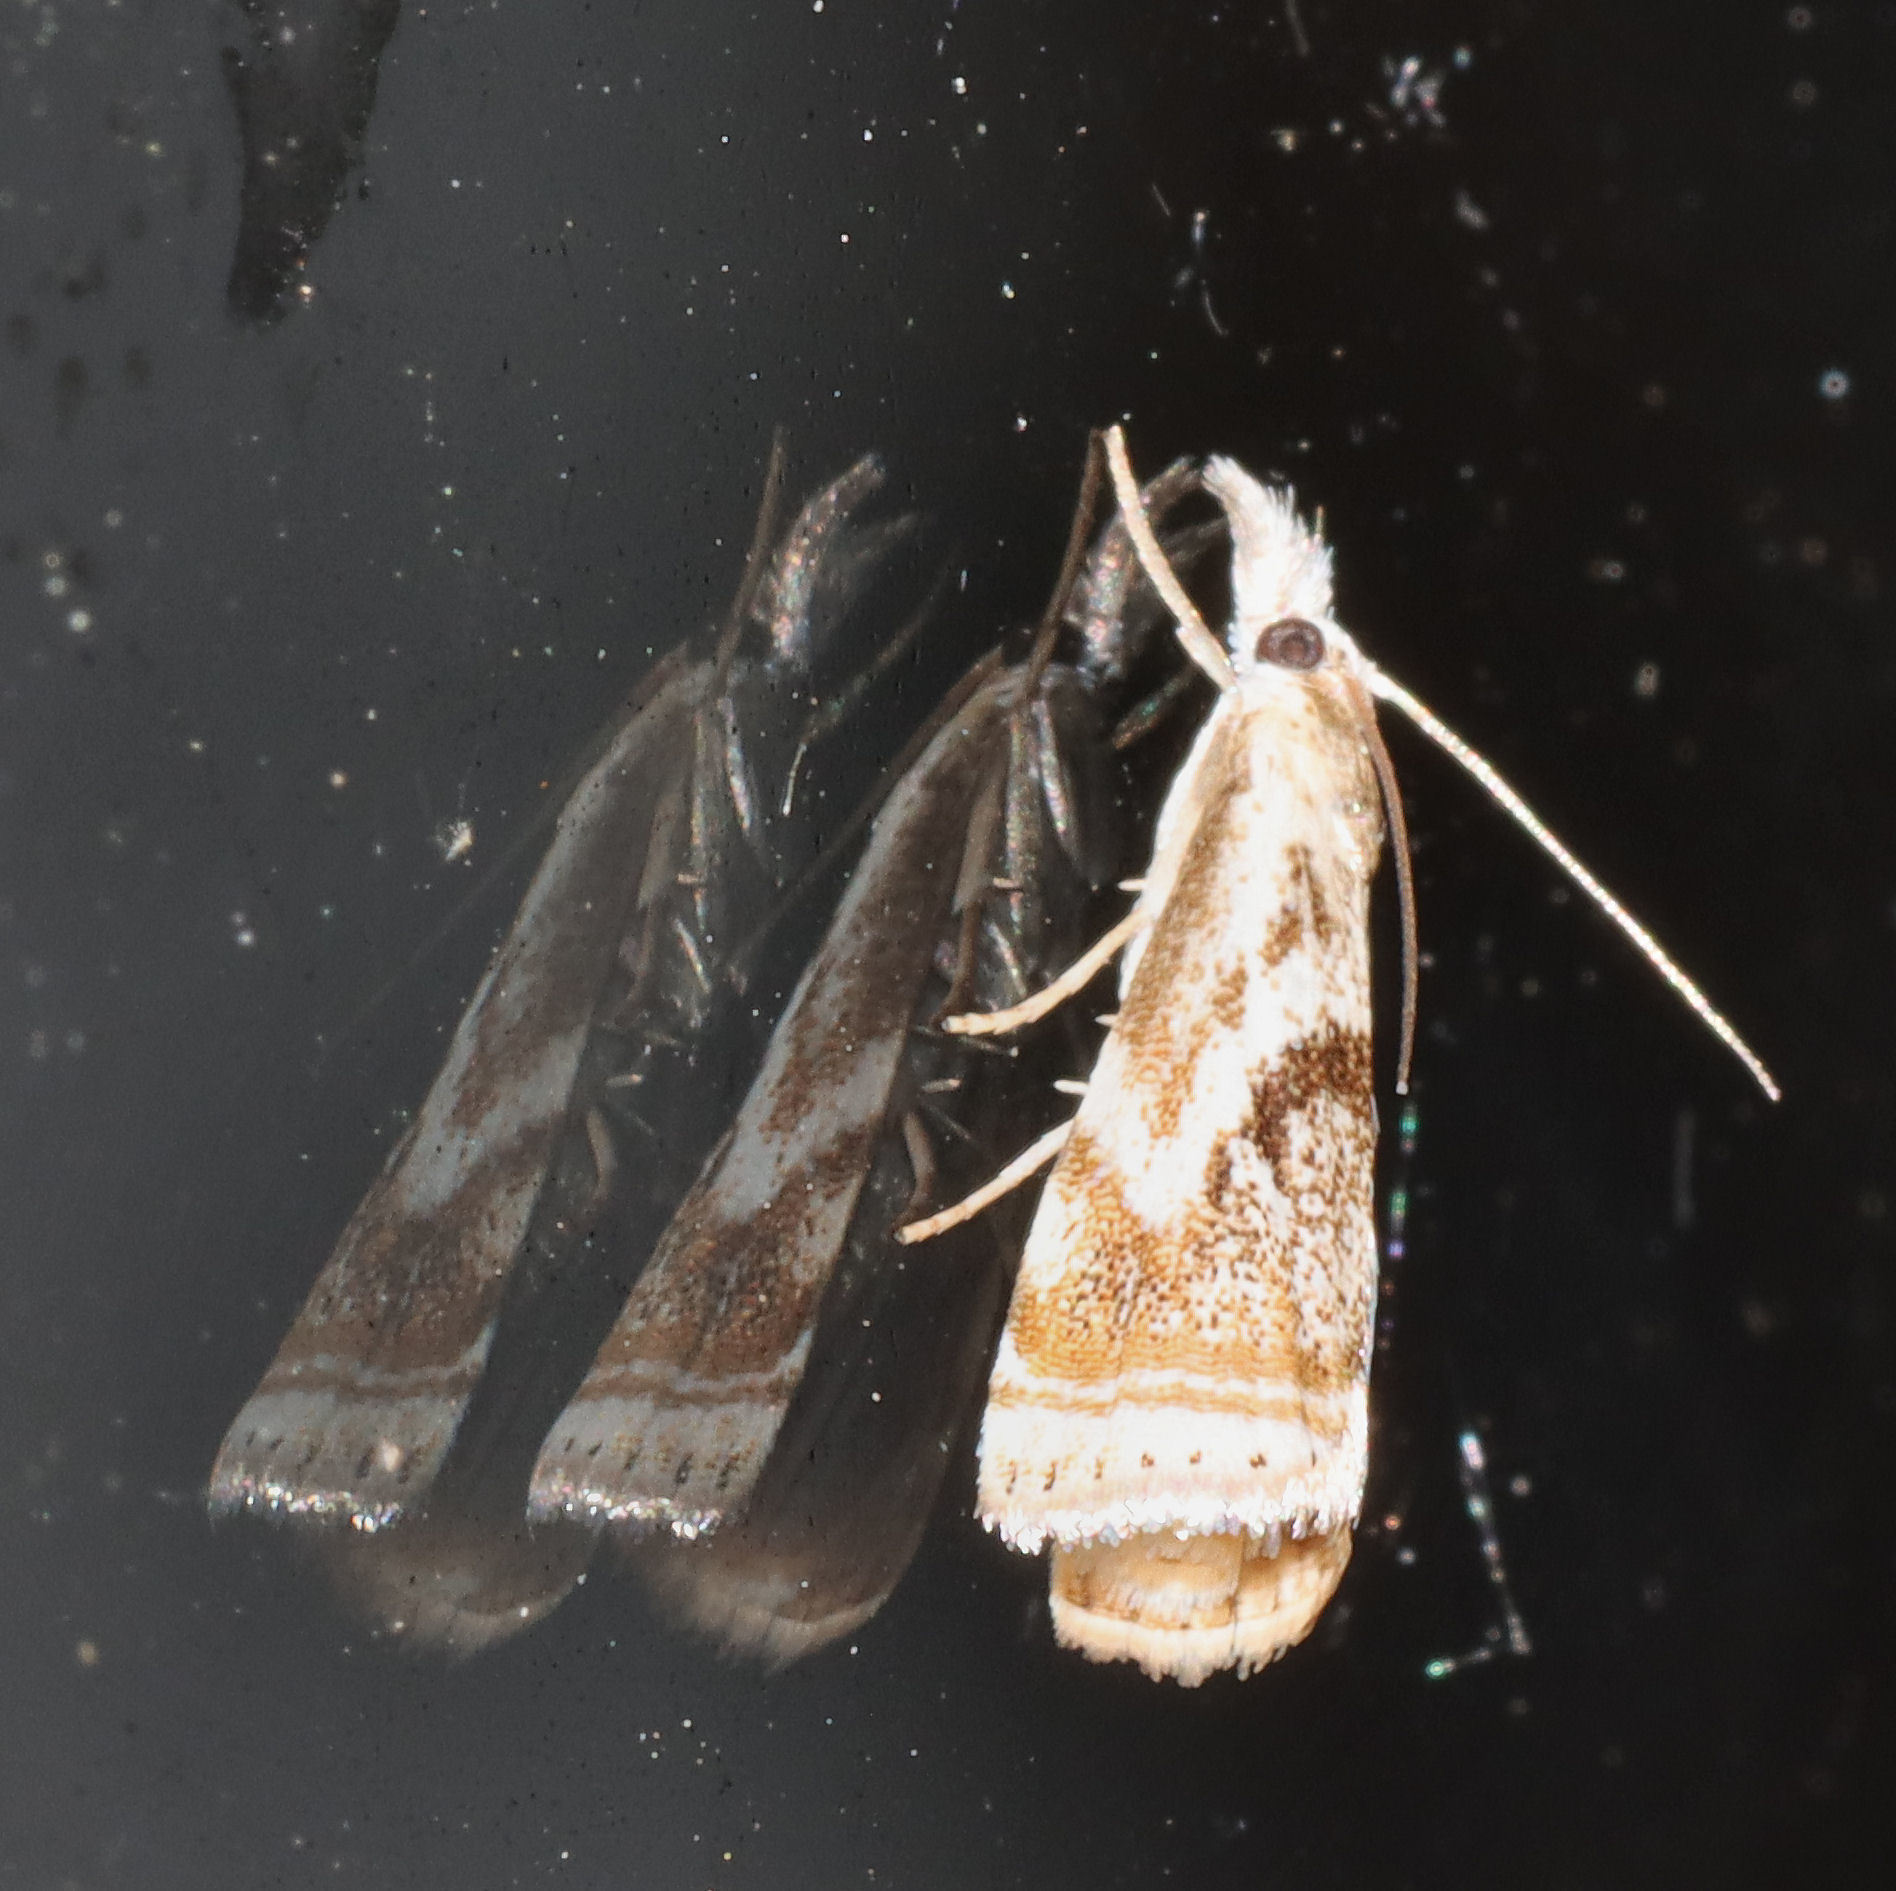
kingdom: Animalia
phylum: Arthropoda
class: Insecta
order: Lepidoptera
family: Crambidae
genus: Microcrambus
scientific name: Microcrambus elegans
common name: Elegant grass-veneer
